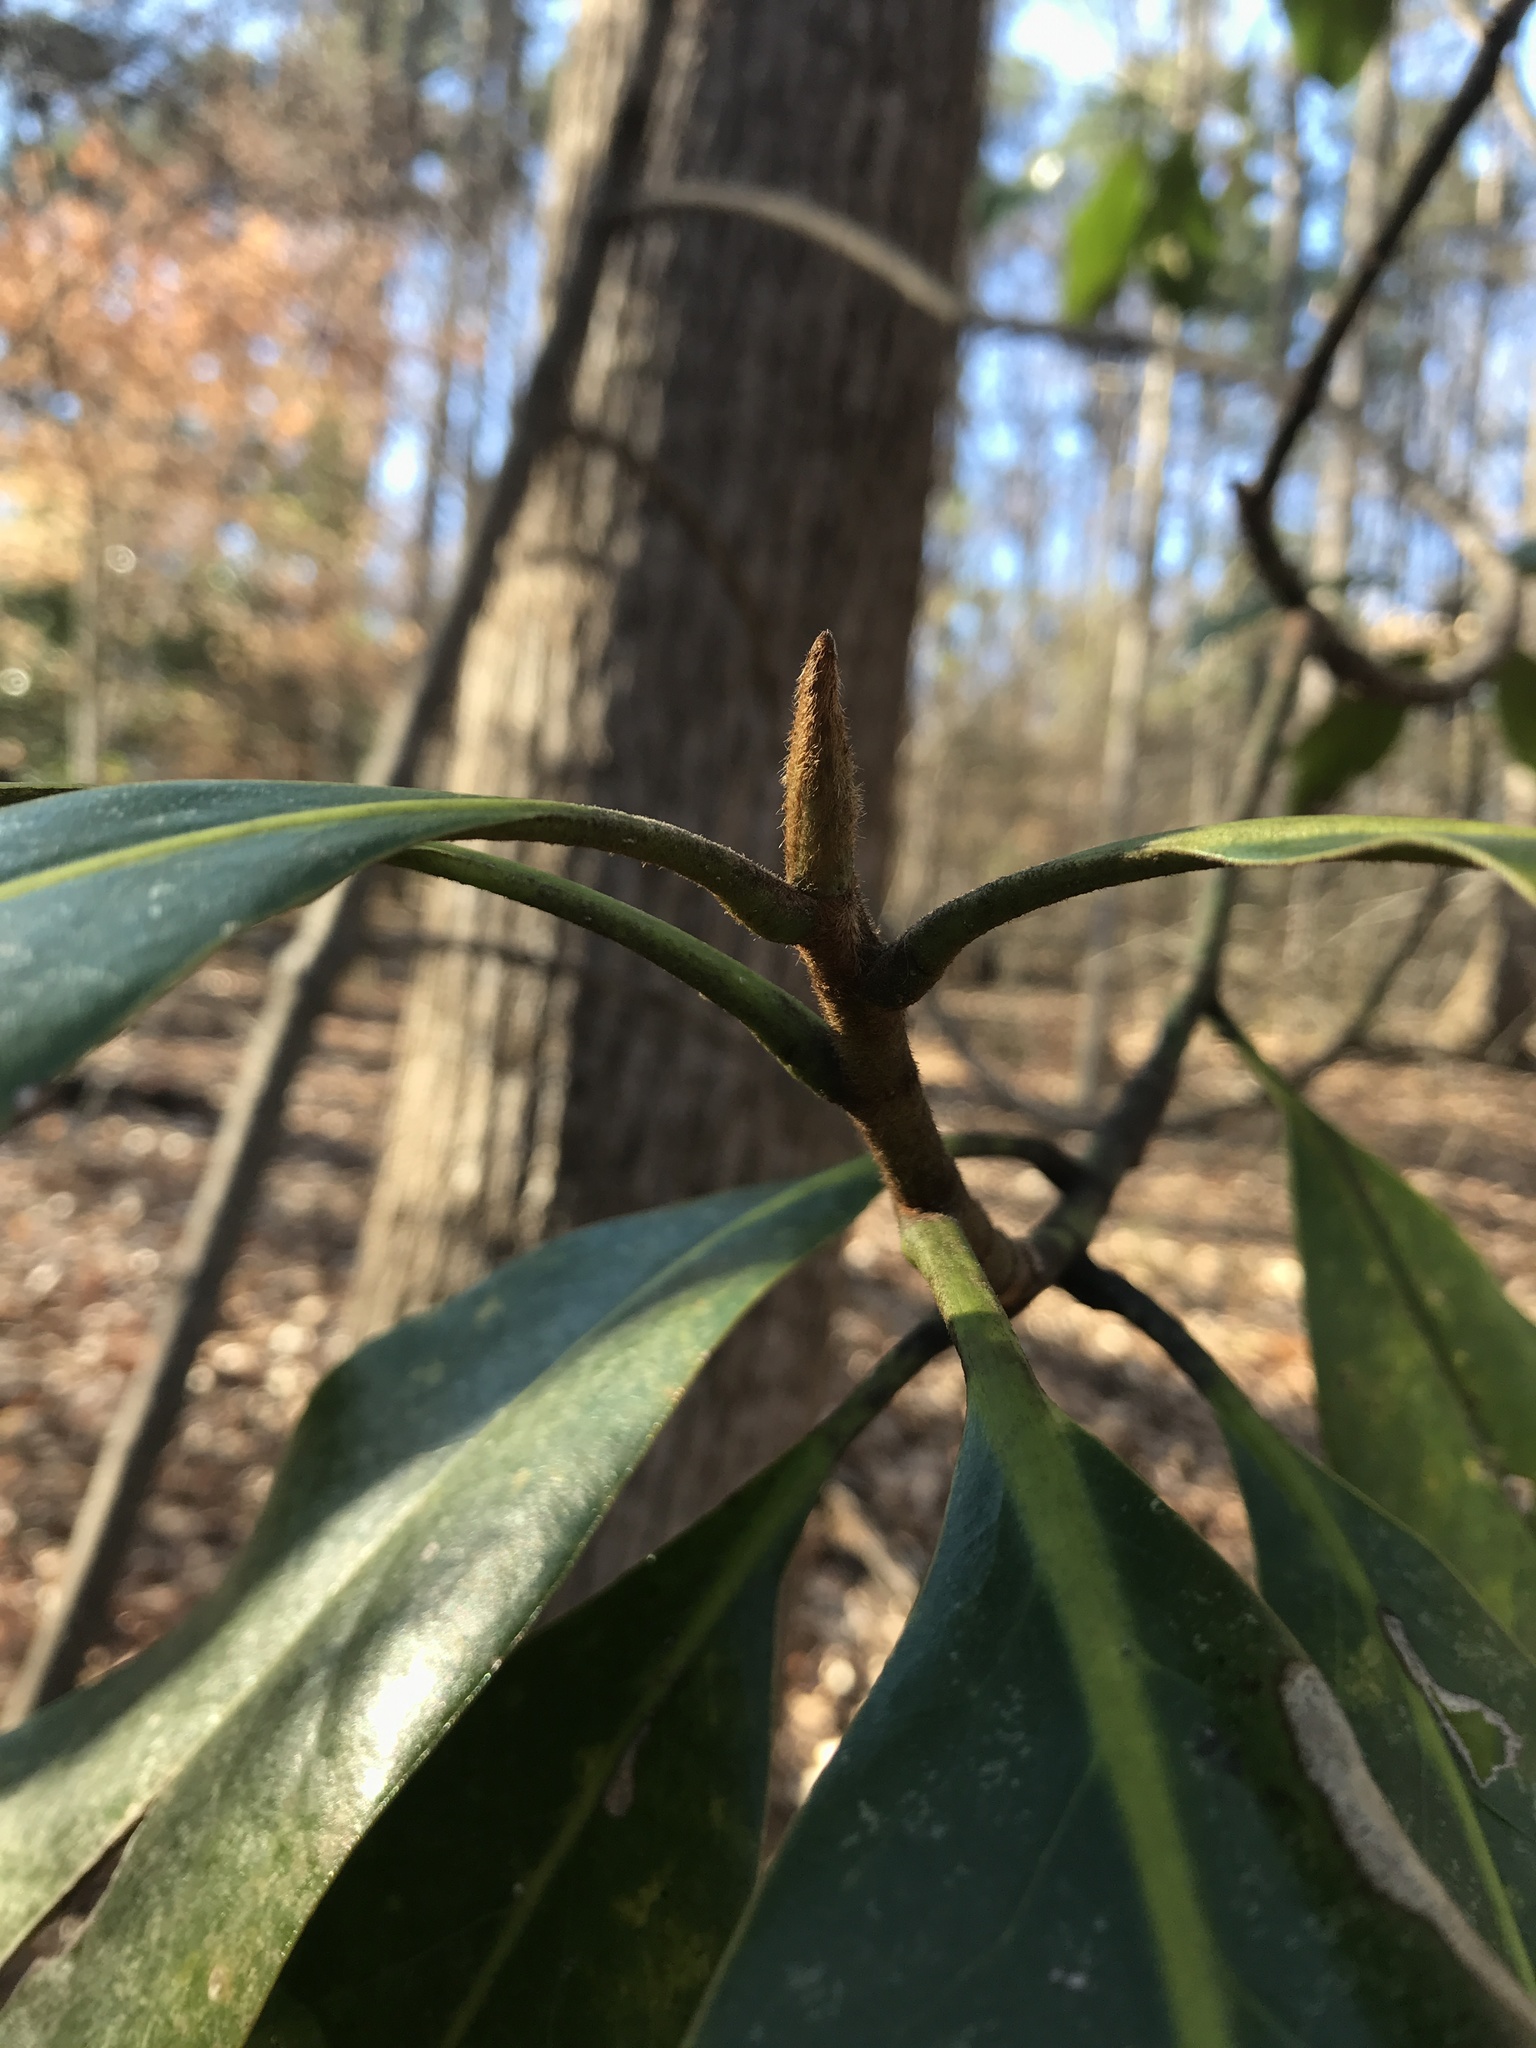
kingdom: Plantae
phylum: Tracheophyta
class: Magnoliopsida
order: Magnoliales
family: Magnoliaceae
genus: Magnolia
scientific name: Magnolia grandiflora
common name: Southern magnolia
